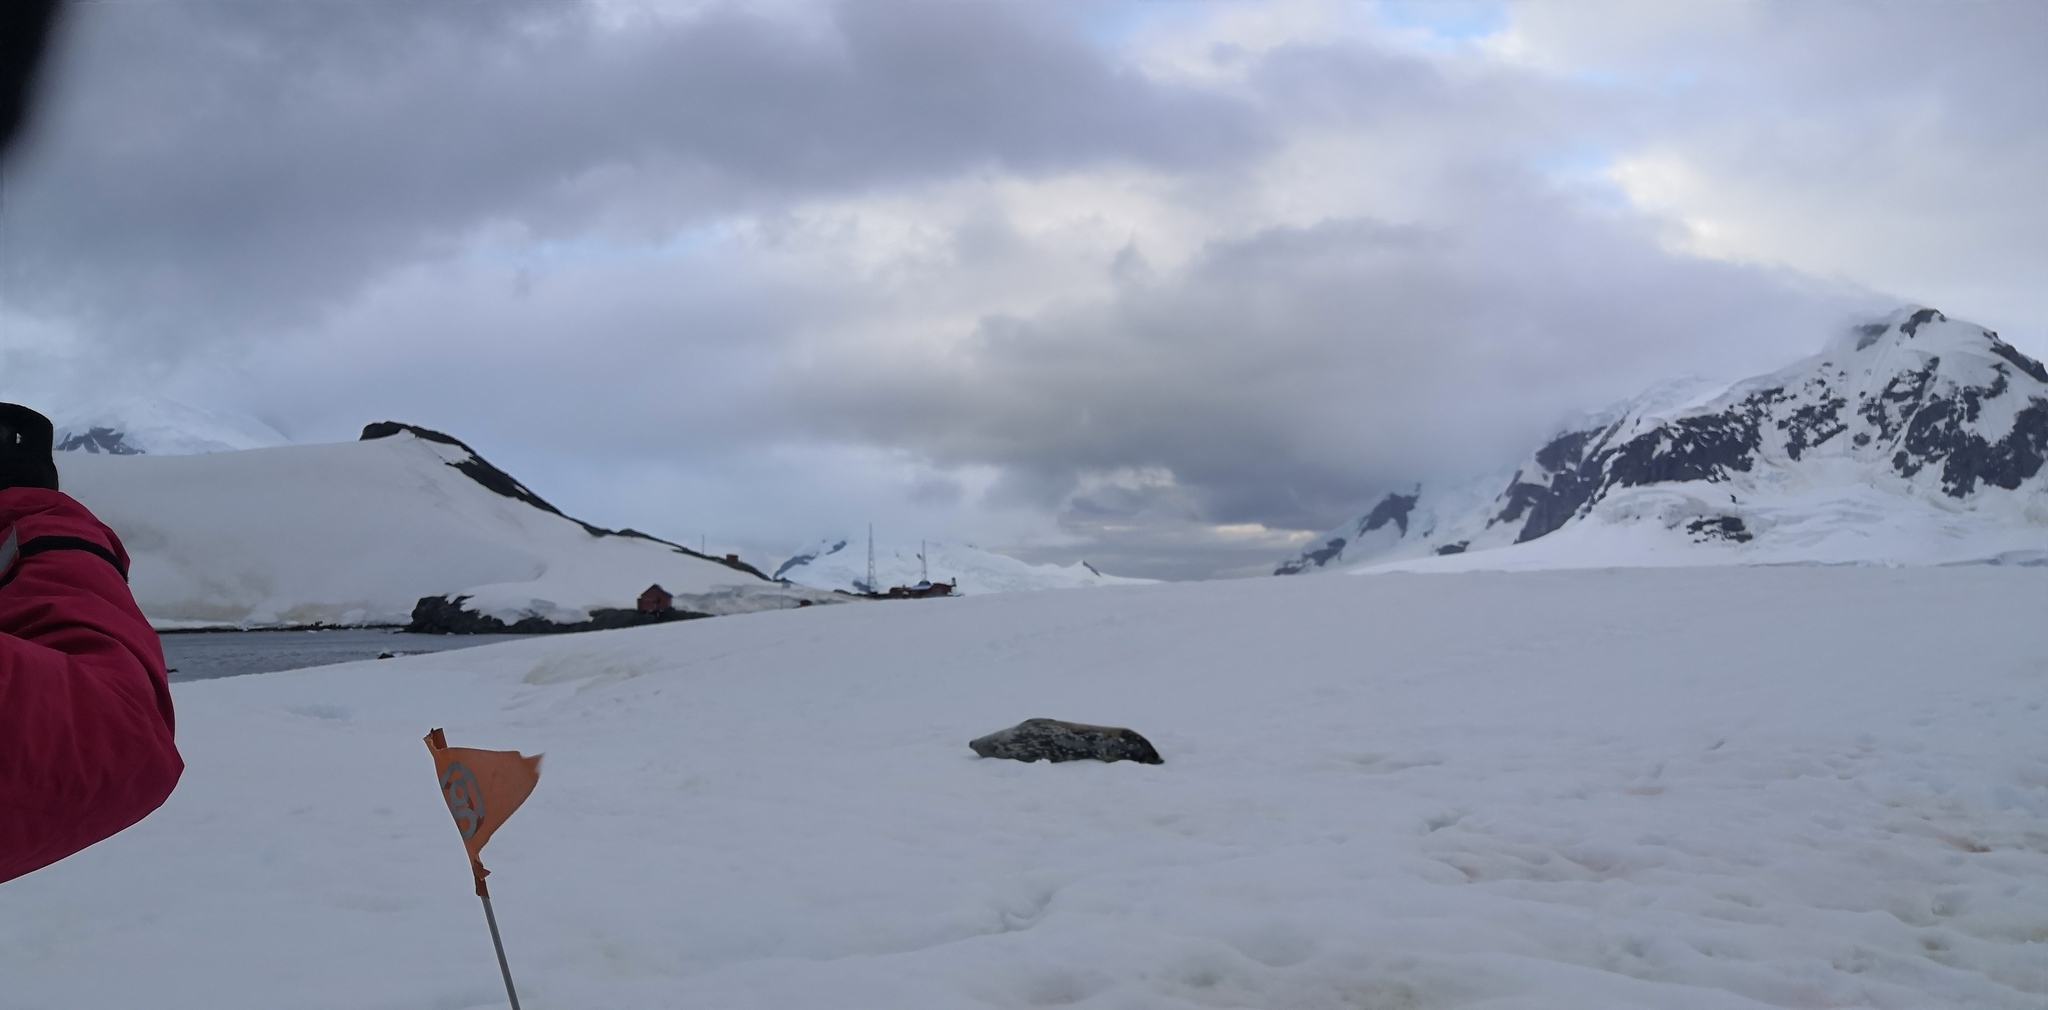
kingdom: Animalia
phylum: Chordata
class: Mammalia
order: Carnivora
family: Phocidae
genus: Leptonychotes
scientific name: Leptonychotes weddellii
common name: Weddell seal
